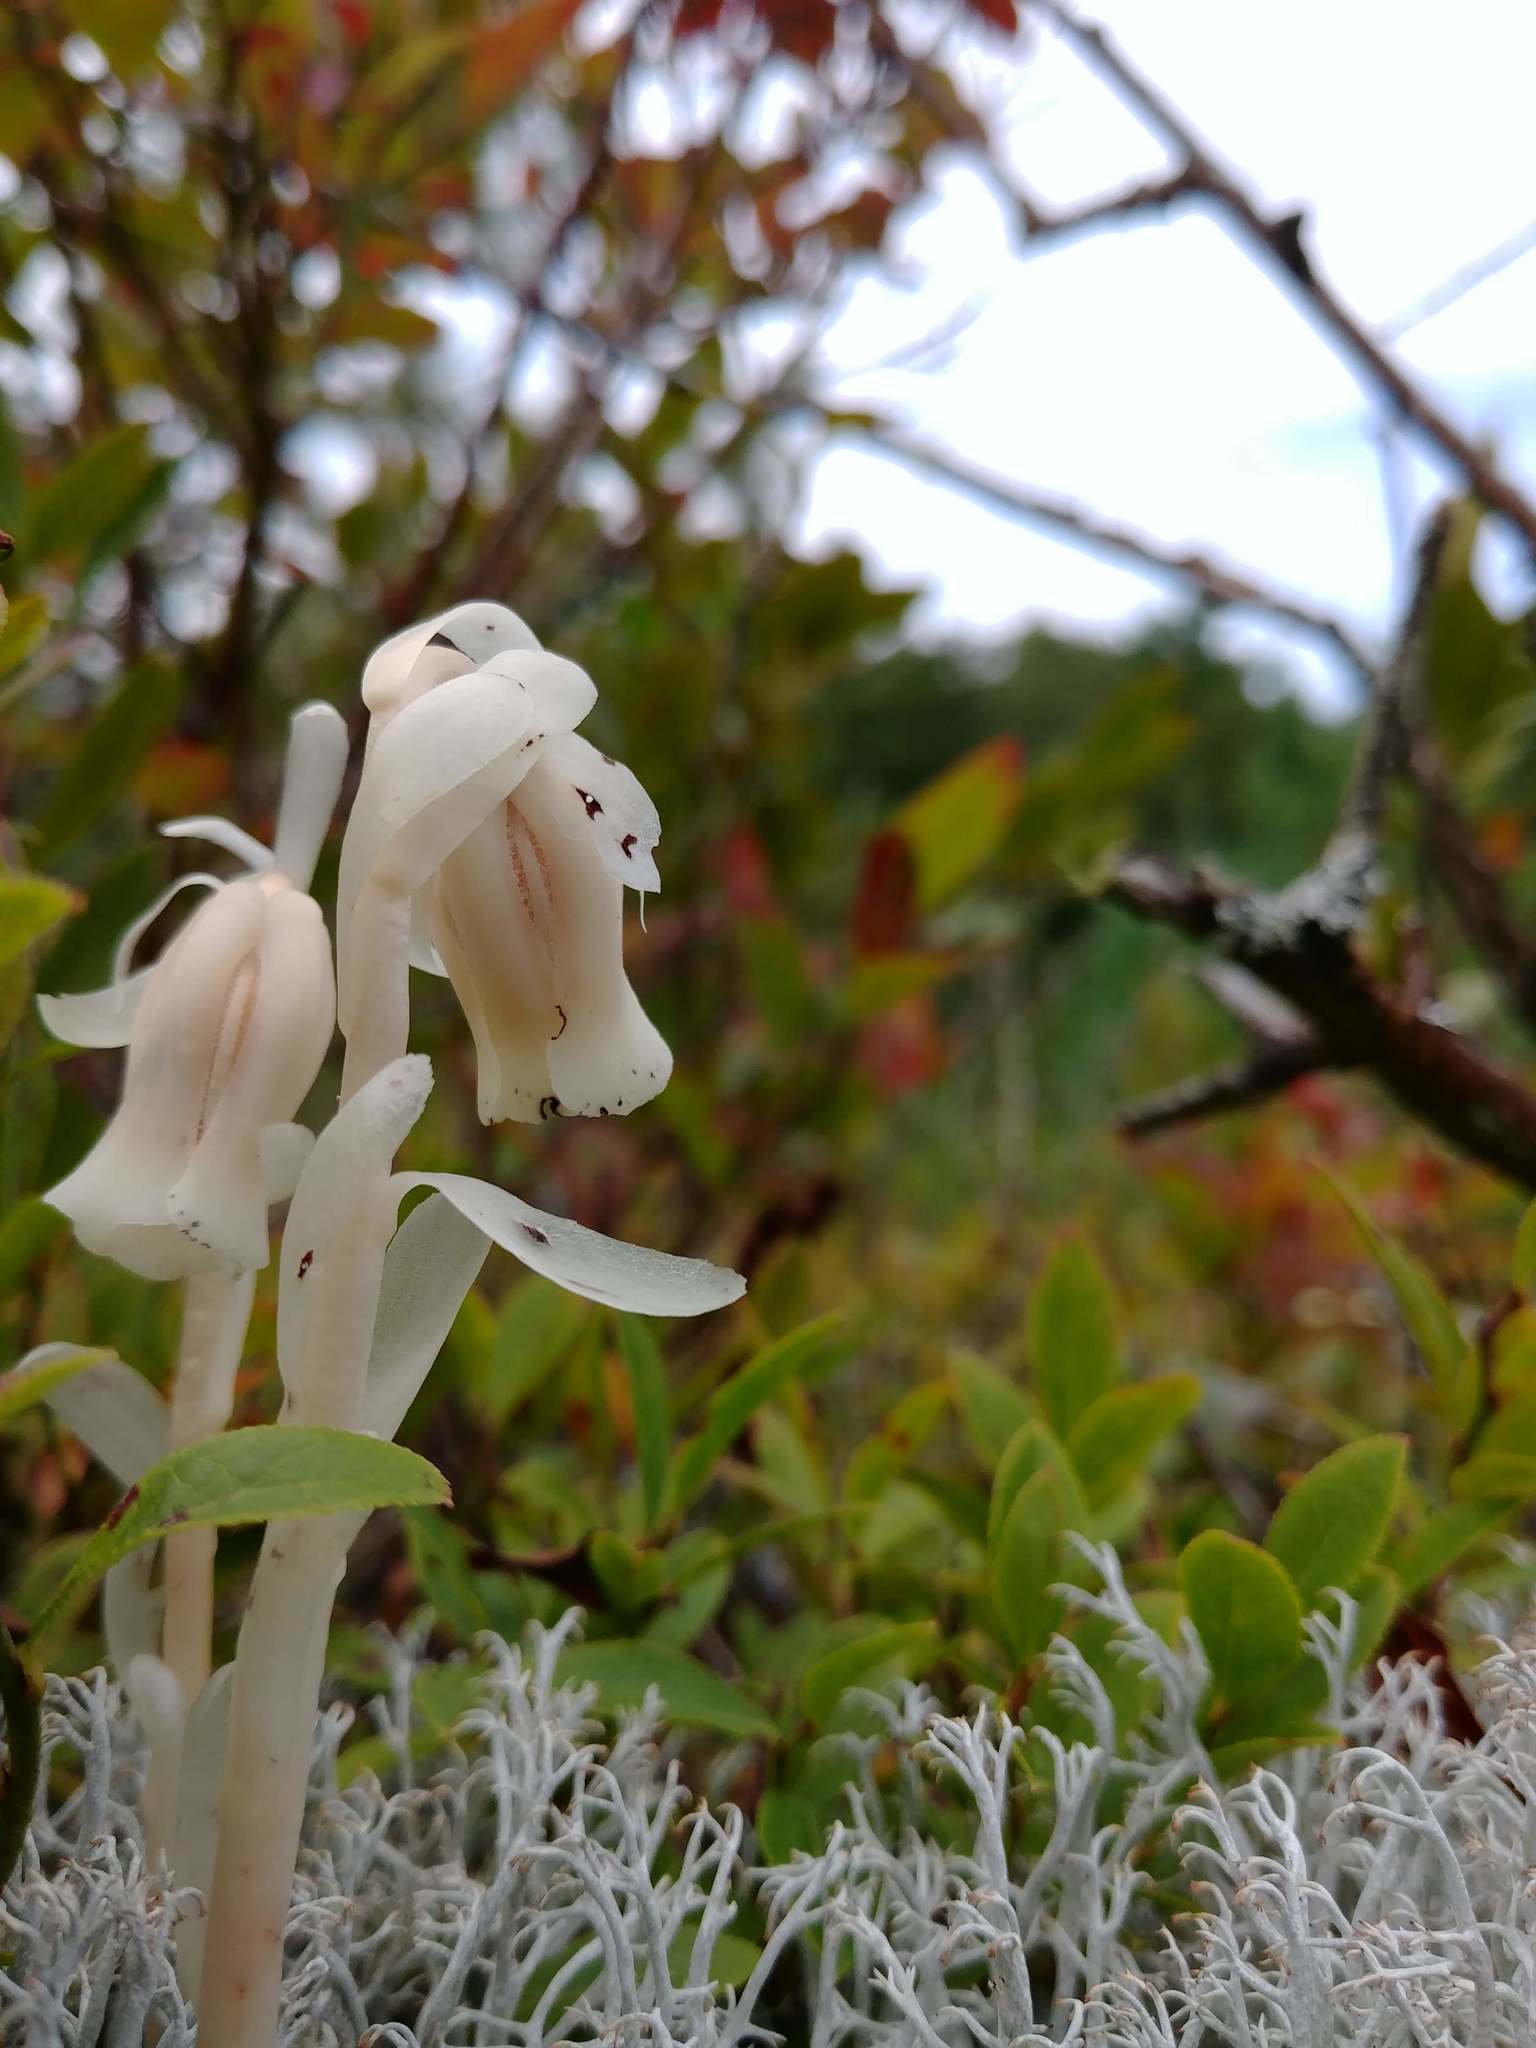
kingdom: Plantae
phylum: Tracheophyta
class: Magnoliopsida
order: Ericales
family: Ericaceae
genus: Monotropa
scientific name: Monotropa uniflora
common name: Convulsion root
